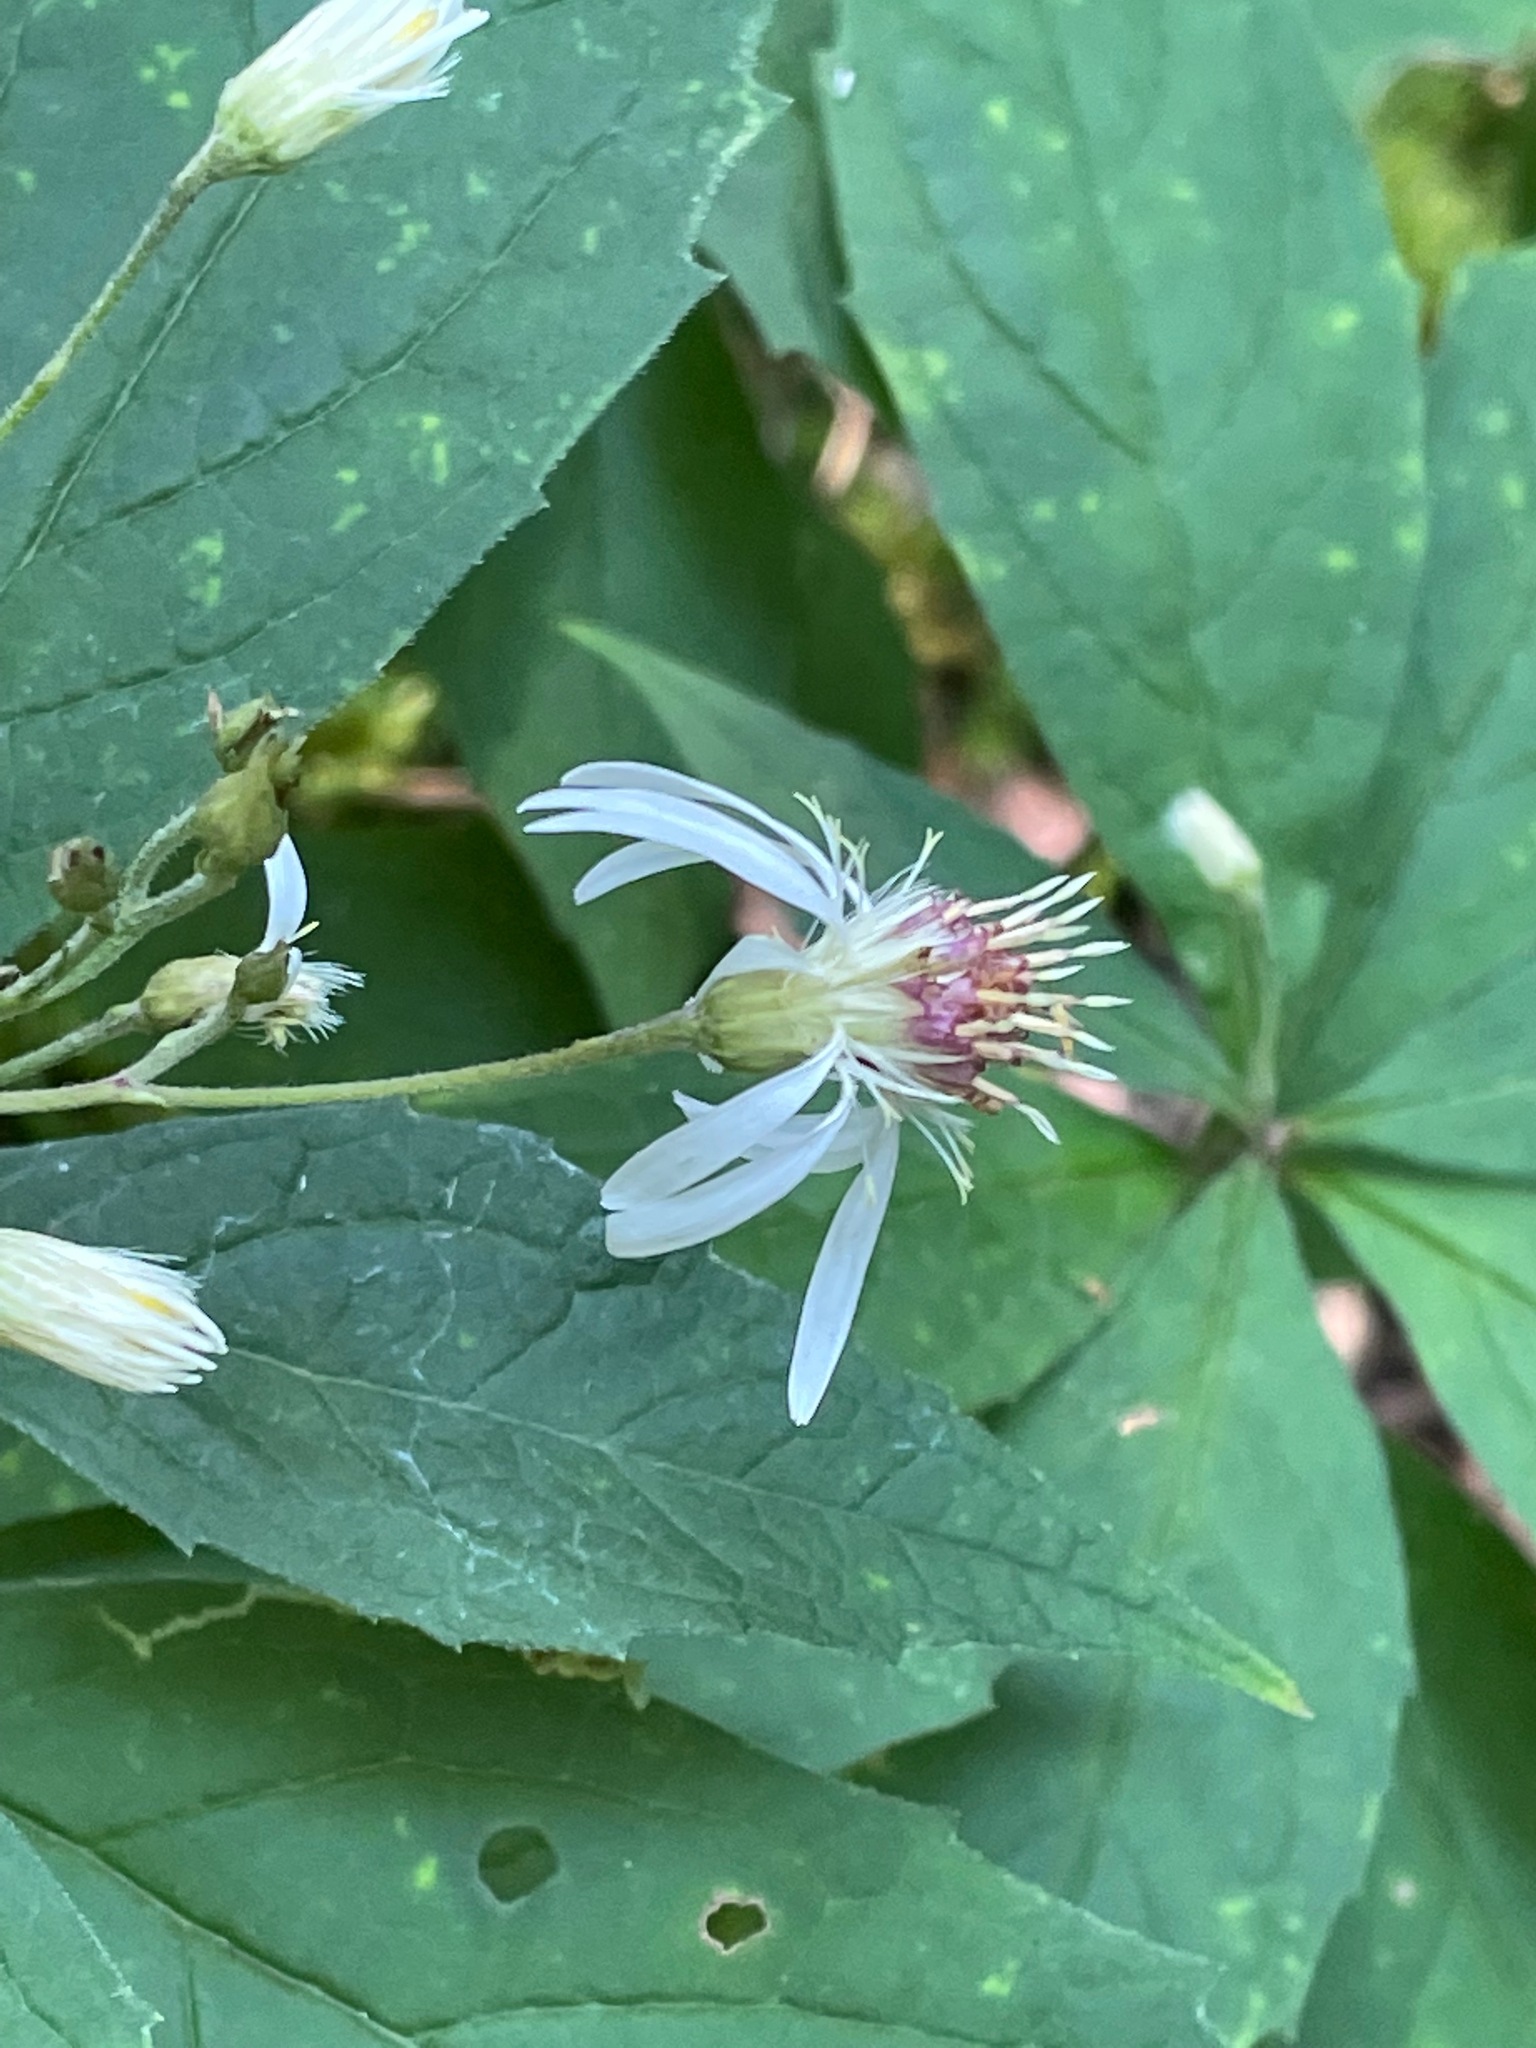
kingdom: Plantae
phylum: Tracheophyta
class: Magnoliopsida
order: Asterales
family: Asteraceae
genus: Oclemena
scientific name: Oclemena acuminata
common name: Mountain aster
